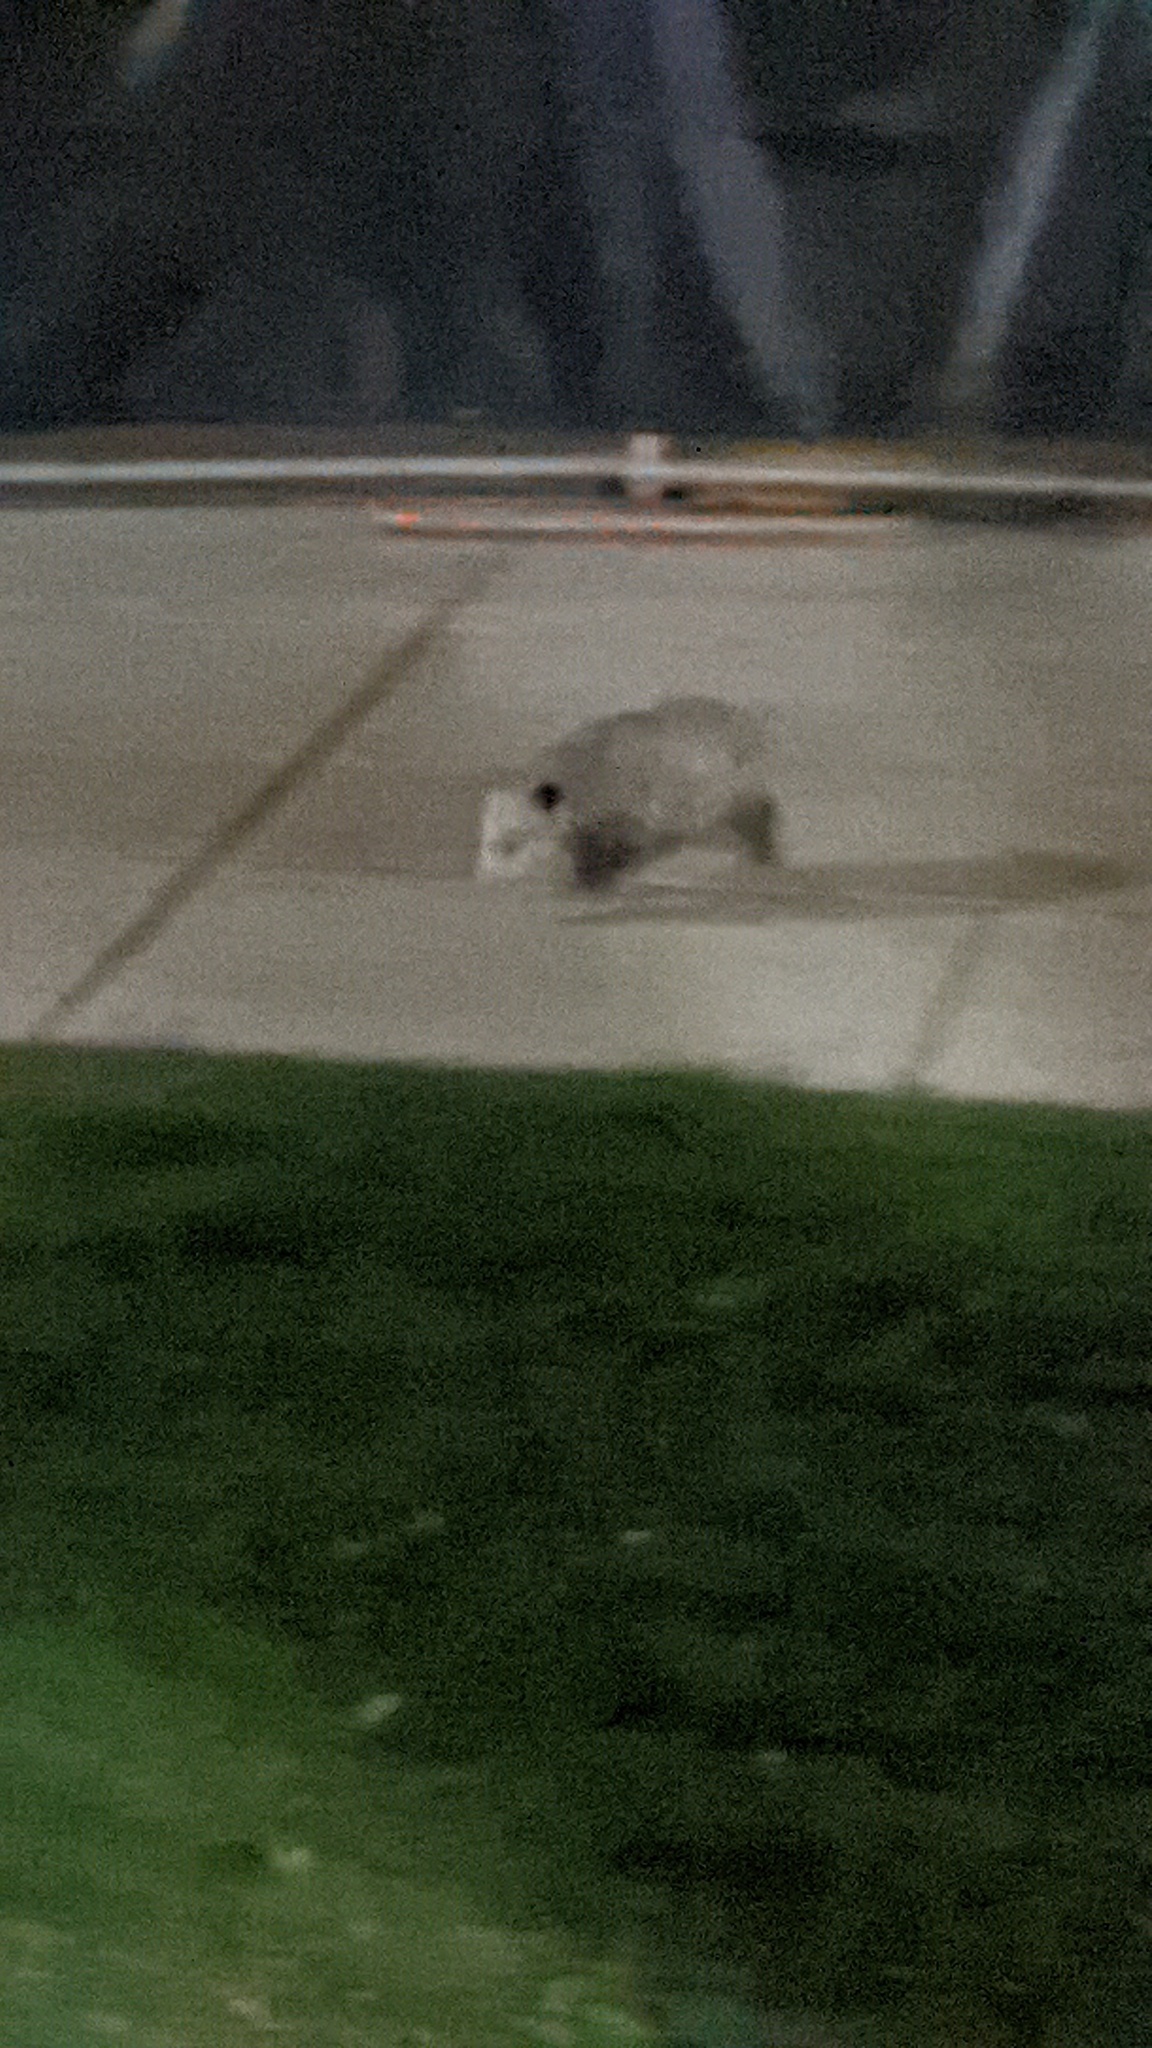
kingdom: Animalia
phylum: Chordata
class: Mammalia
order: Didelphimorphia
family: Didelphidae
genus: Didelphis
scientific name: Didelphis virginiana
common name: Virginia opossum
